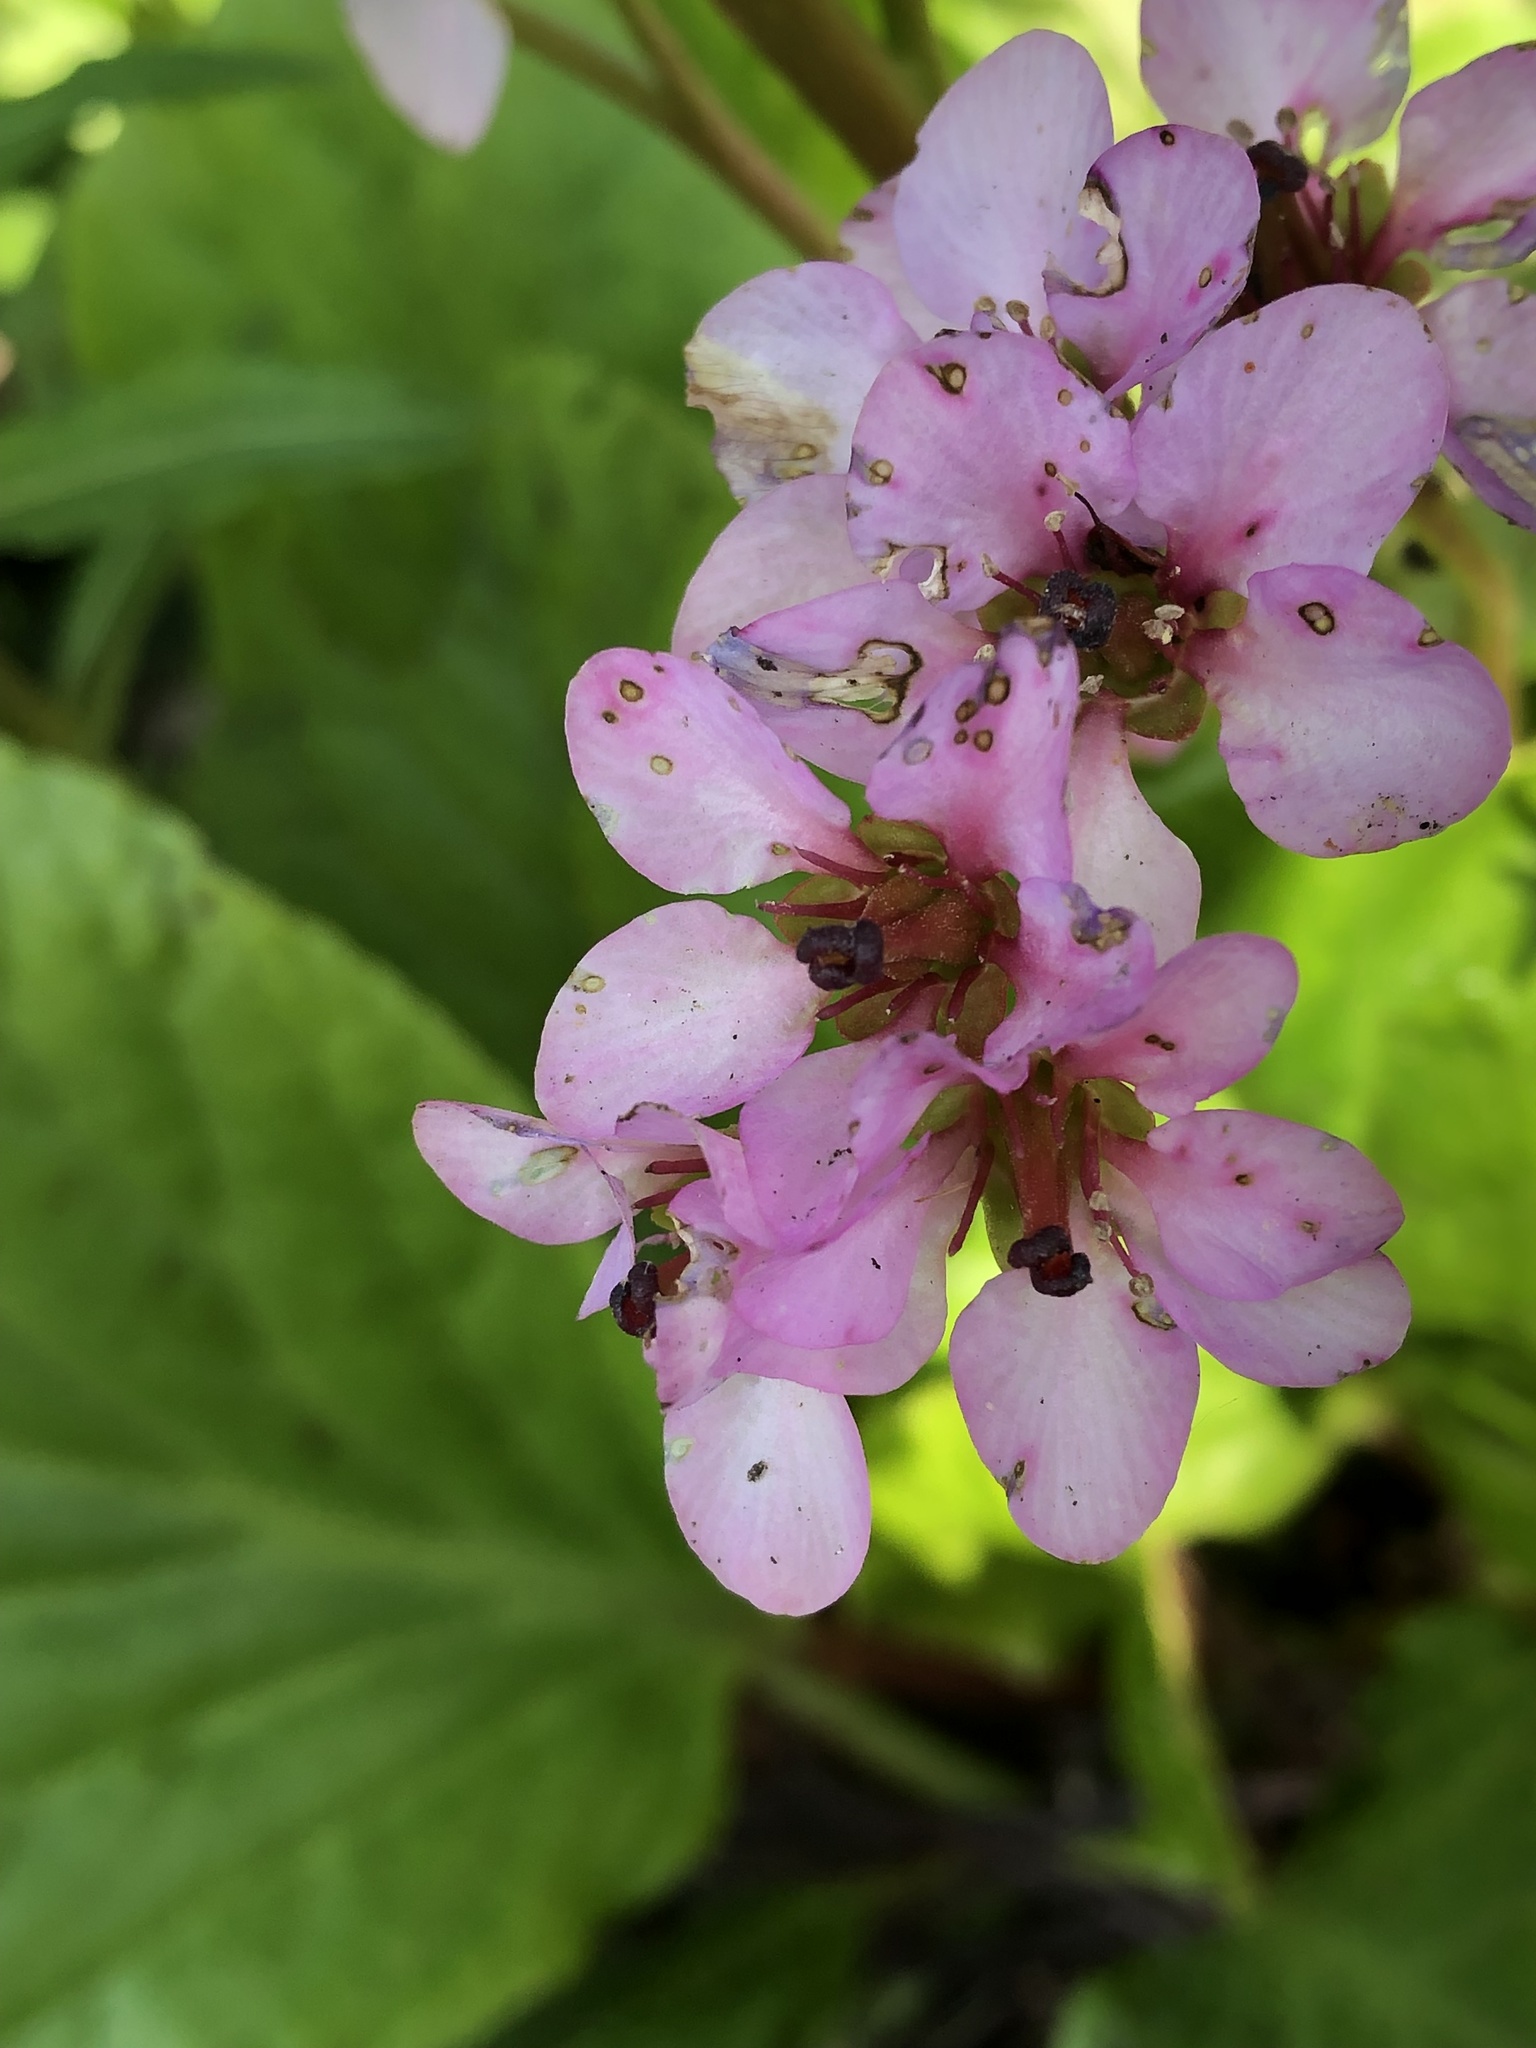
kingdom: Plantae
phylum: Tracheophyta
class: Magnoliopsida
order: Saxifragales
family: Saxifragaceae
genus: Bergenia
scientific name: Bergenia crassifolia
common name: Elephant-ears
